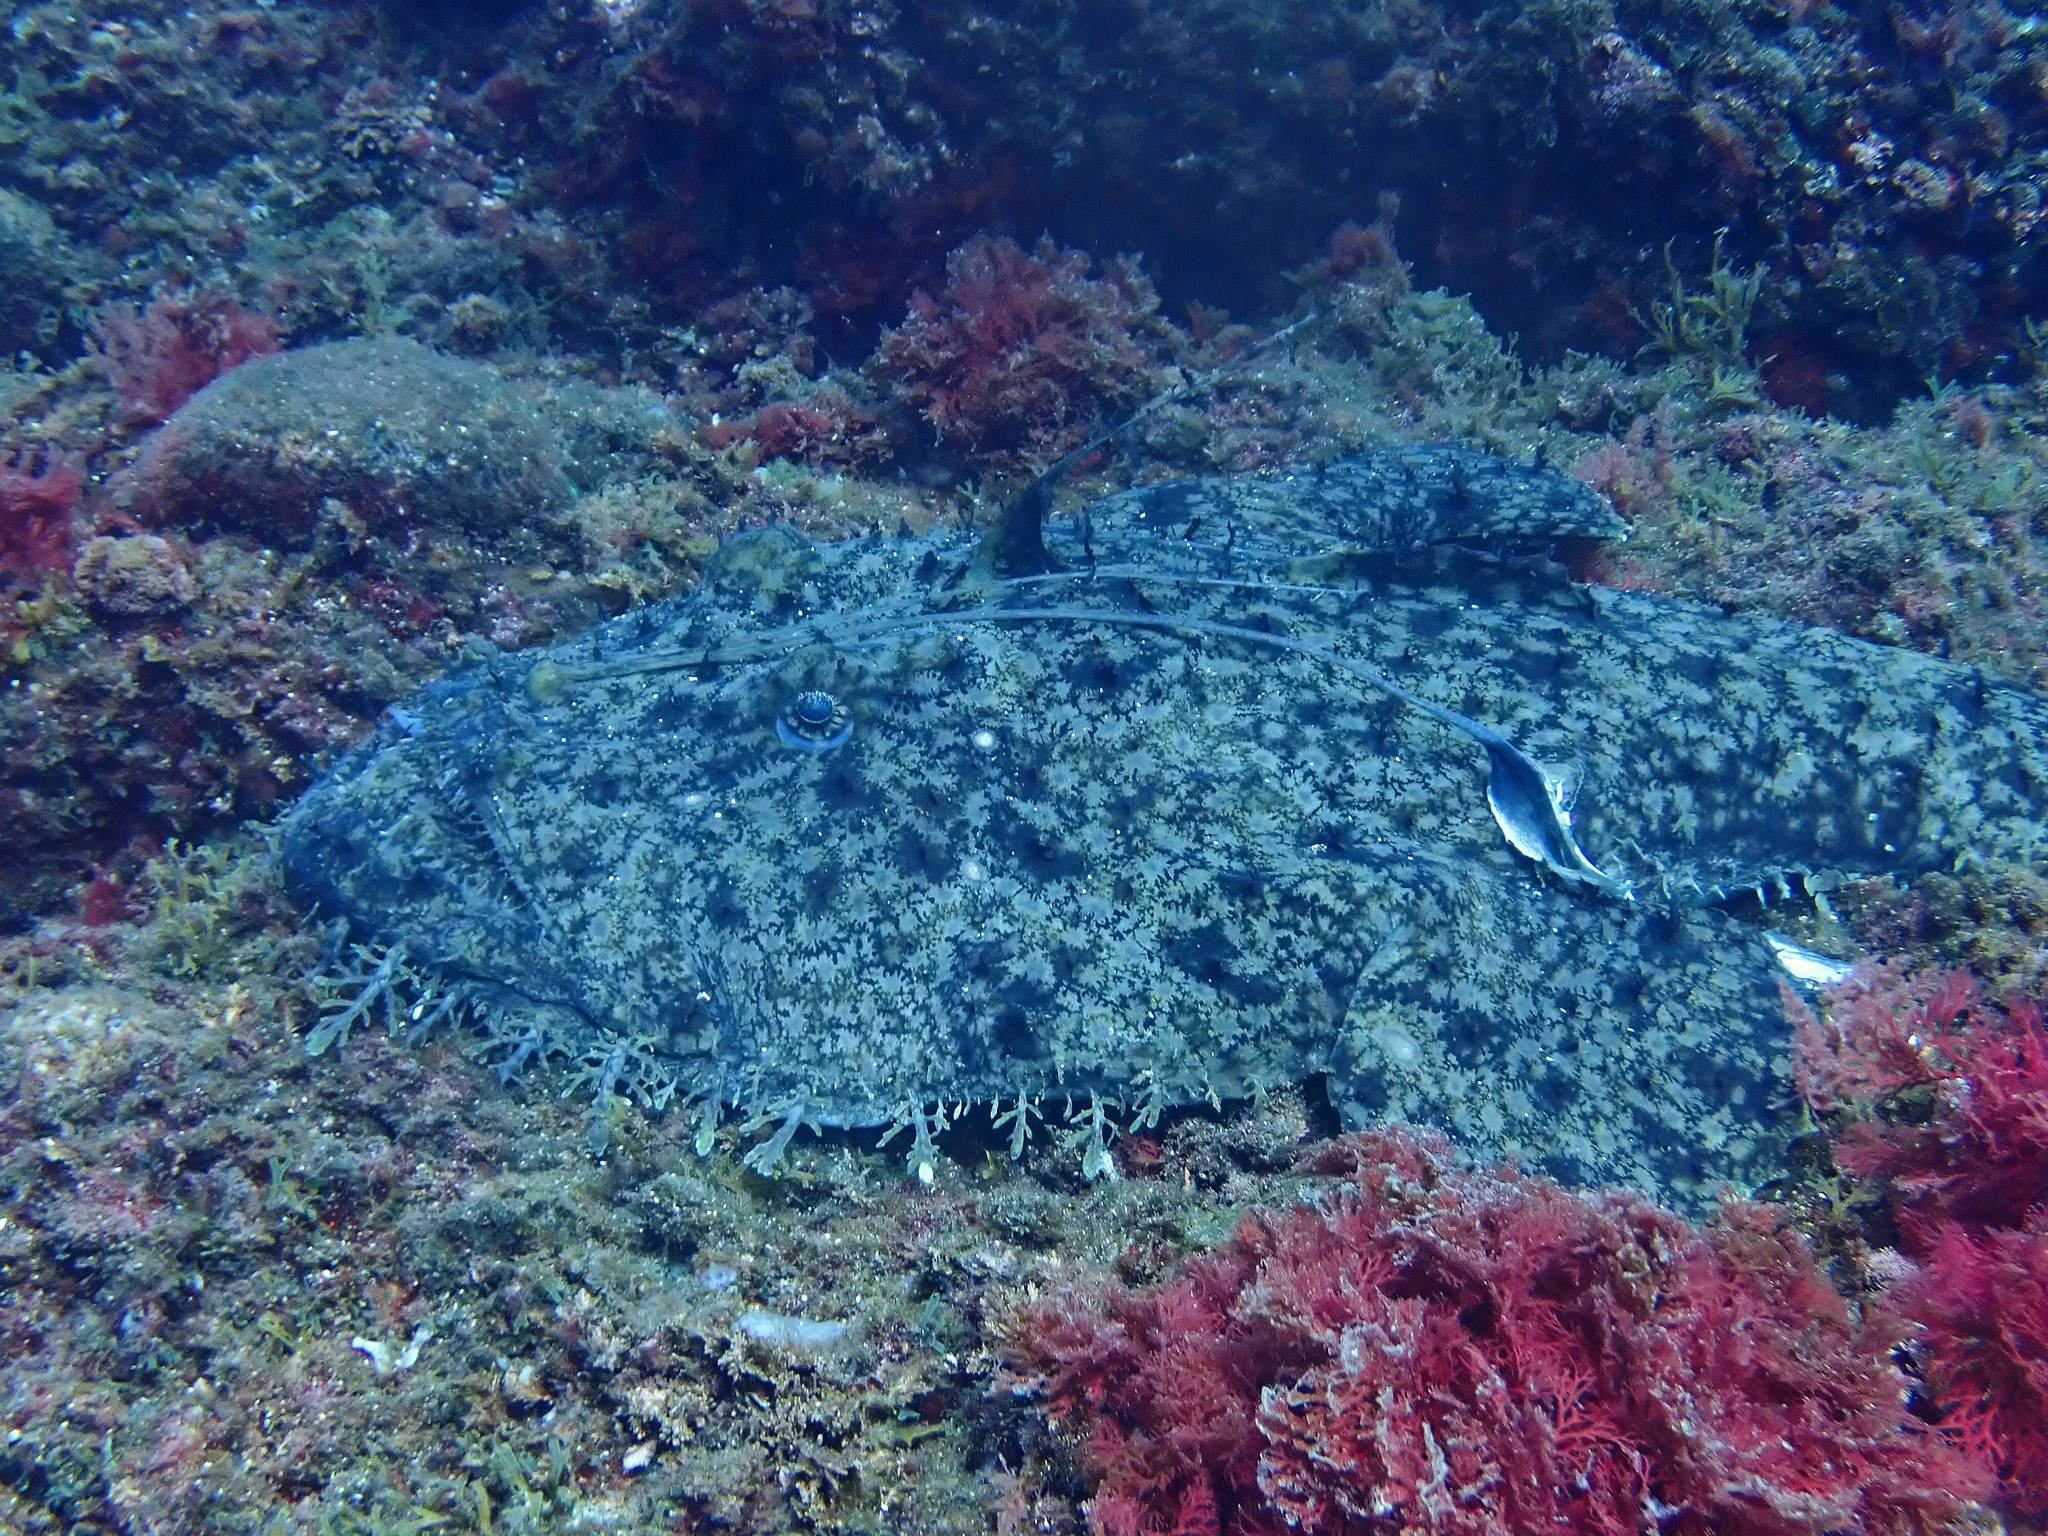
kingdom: Animalia
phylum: Chordata
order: Lophiiformes
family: Lophiidae
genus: Lophius
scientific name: Lophius piscatorius
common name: Angler
